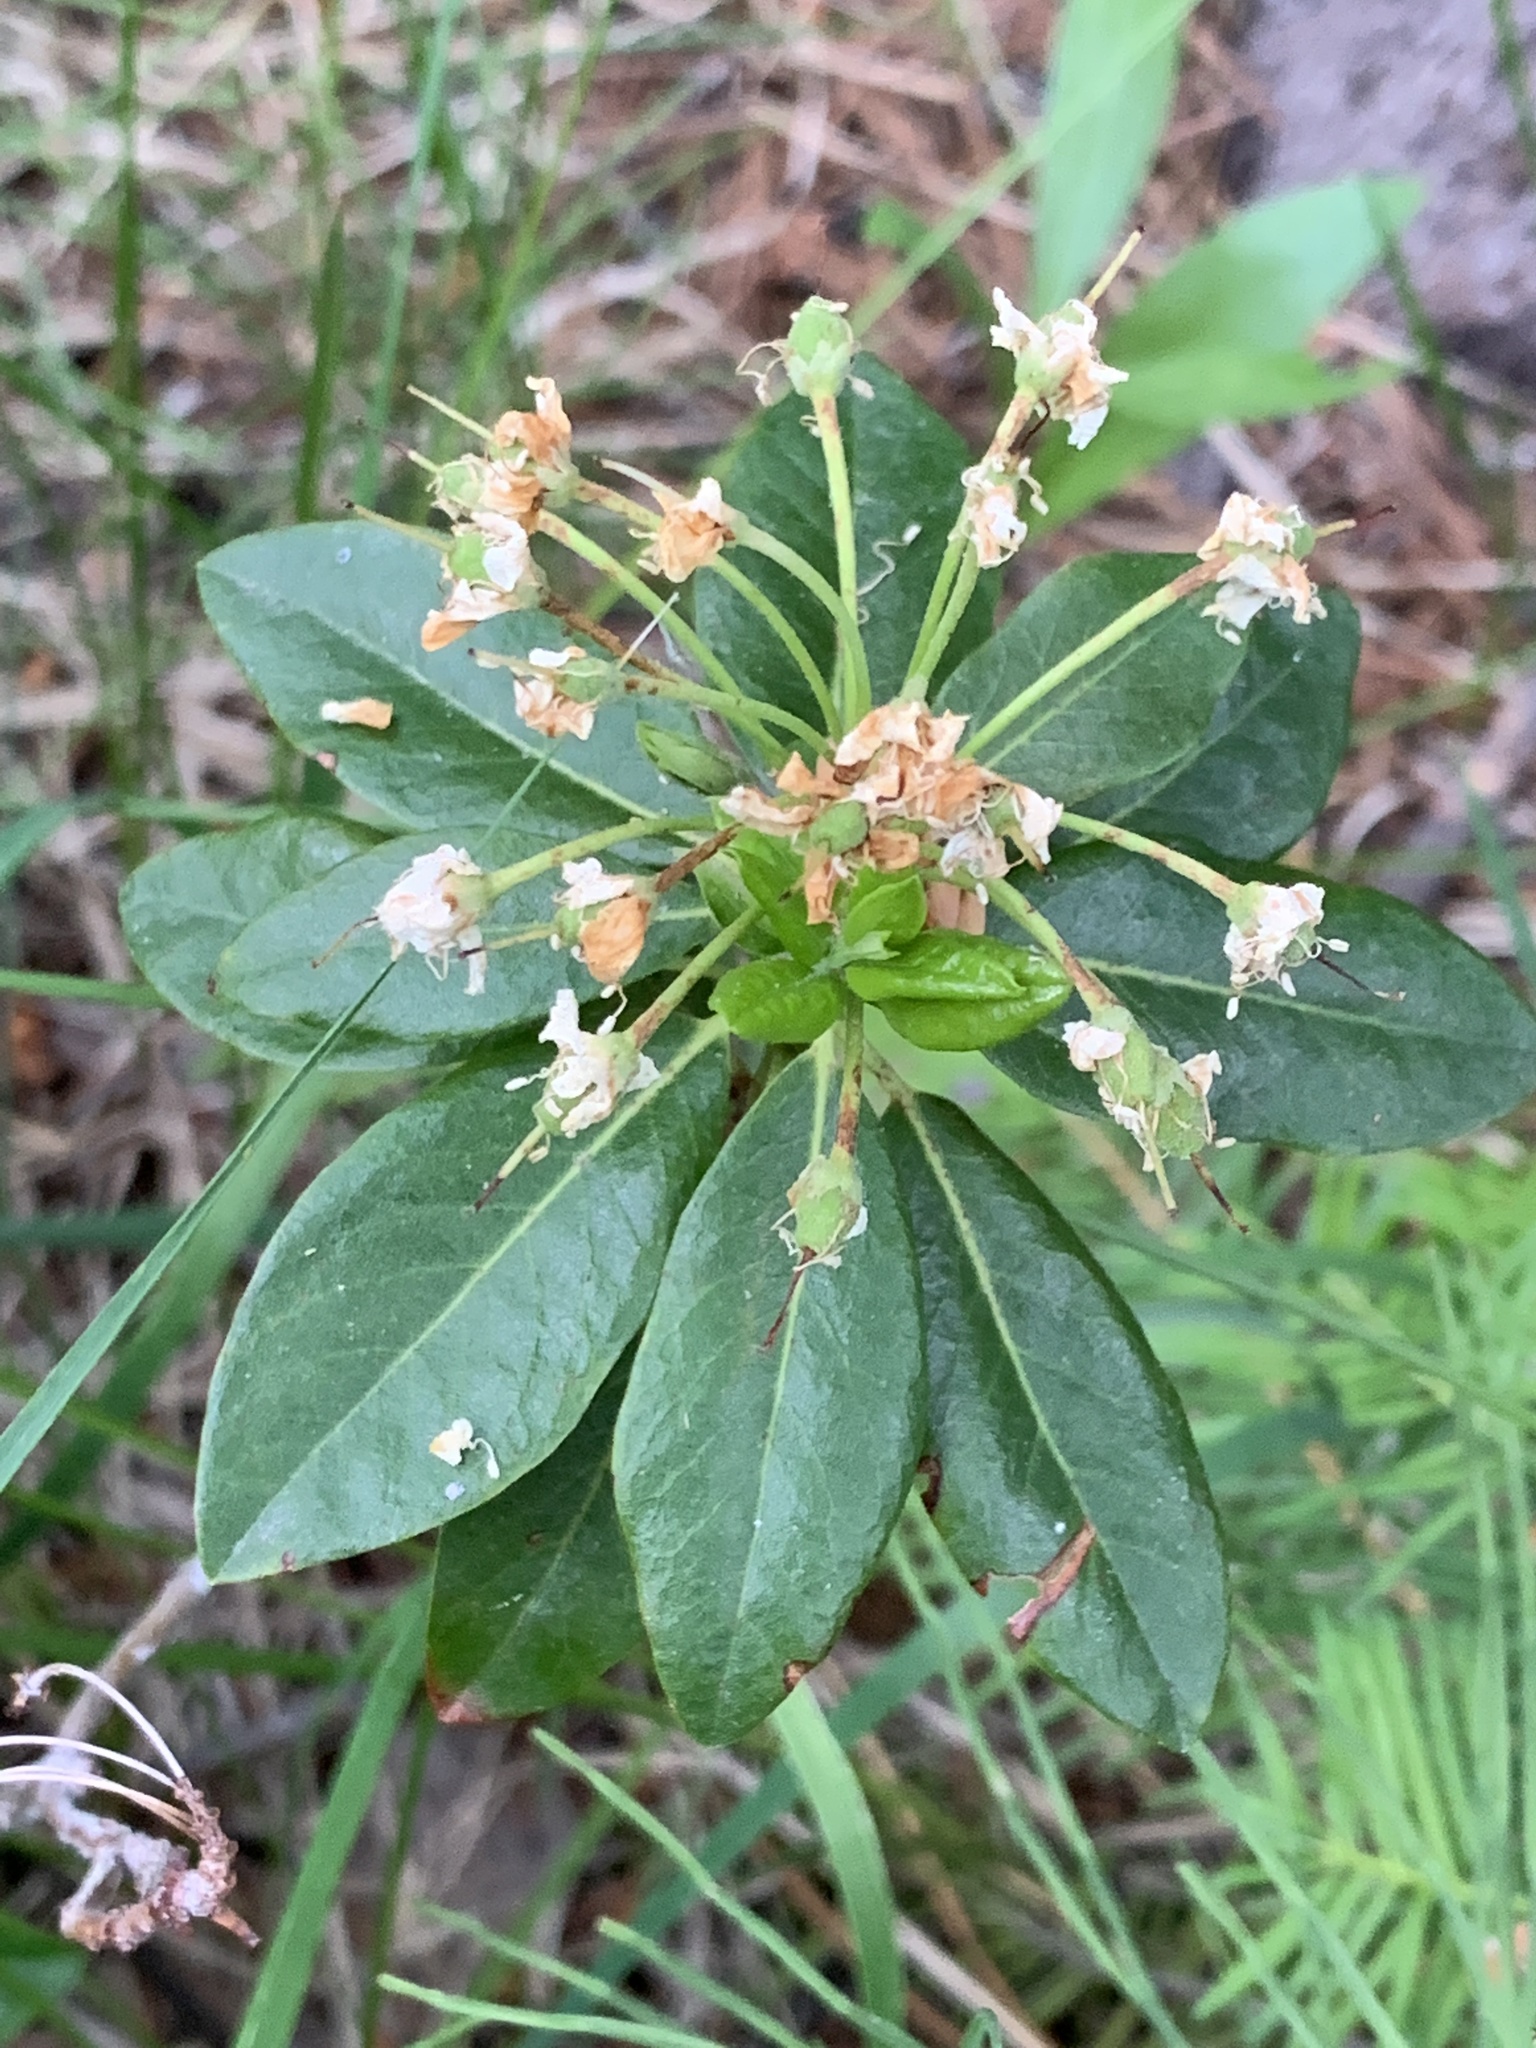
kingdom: Plantae
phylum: Tracheophyta
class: Magnoliopsida
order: Ericales
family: Ericaceae
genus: Rhododendron
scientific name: Rhododendron columbianum
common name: Western labrador tea
